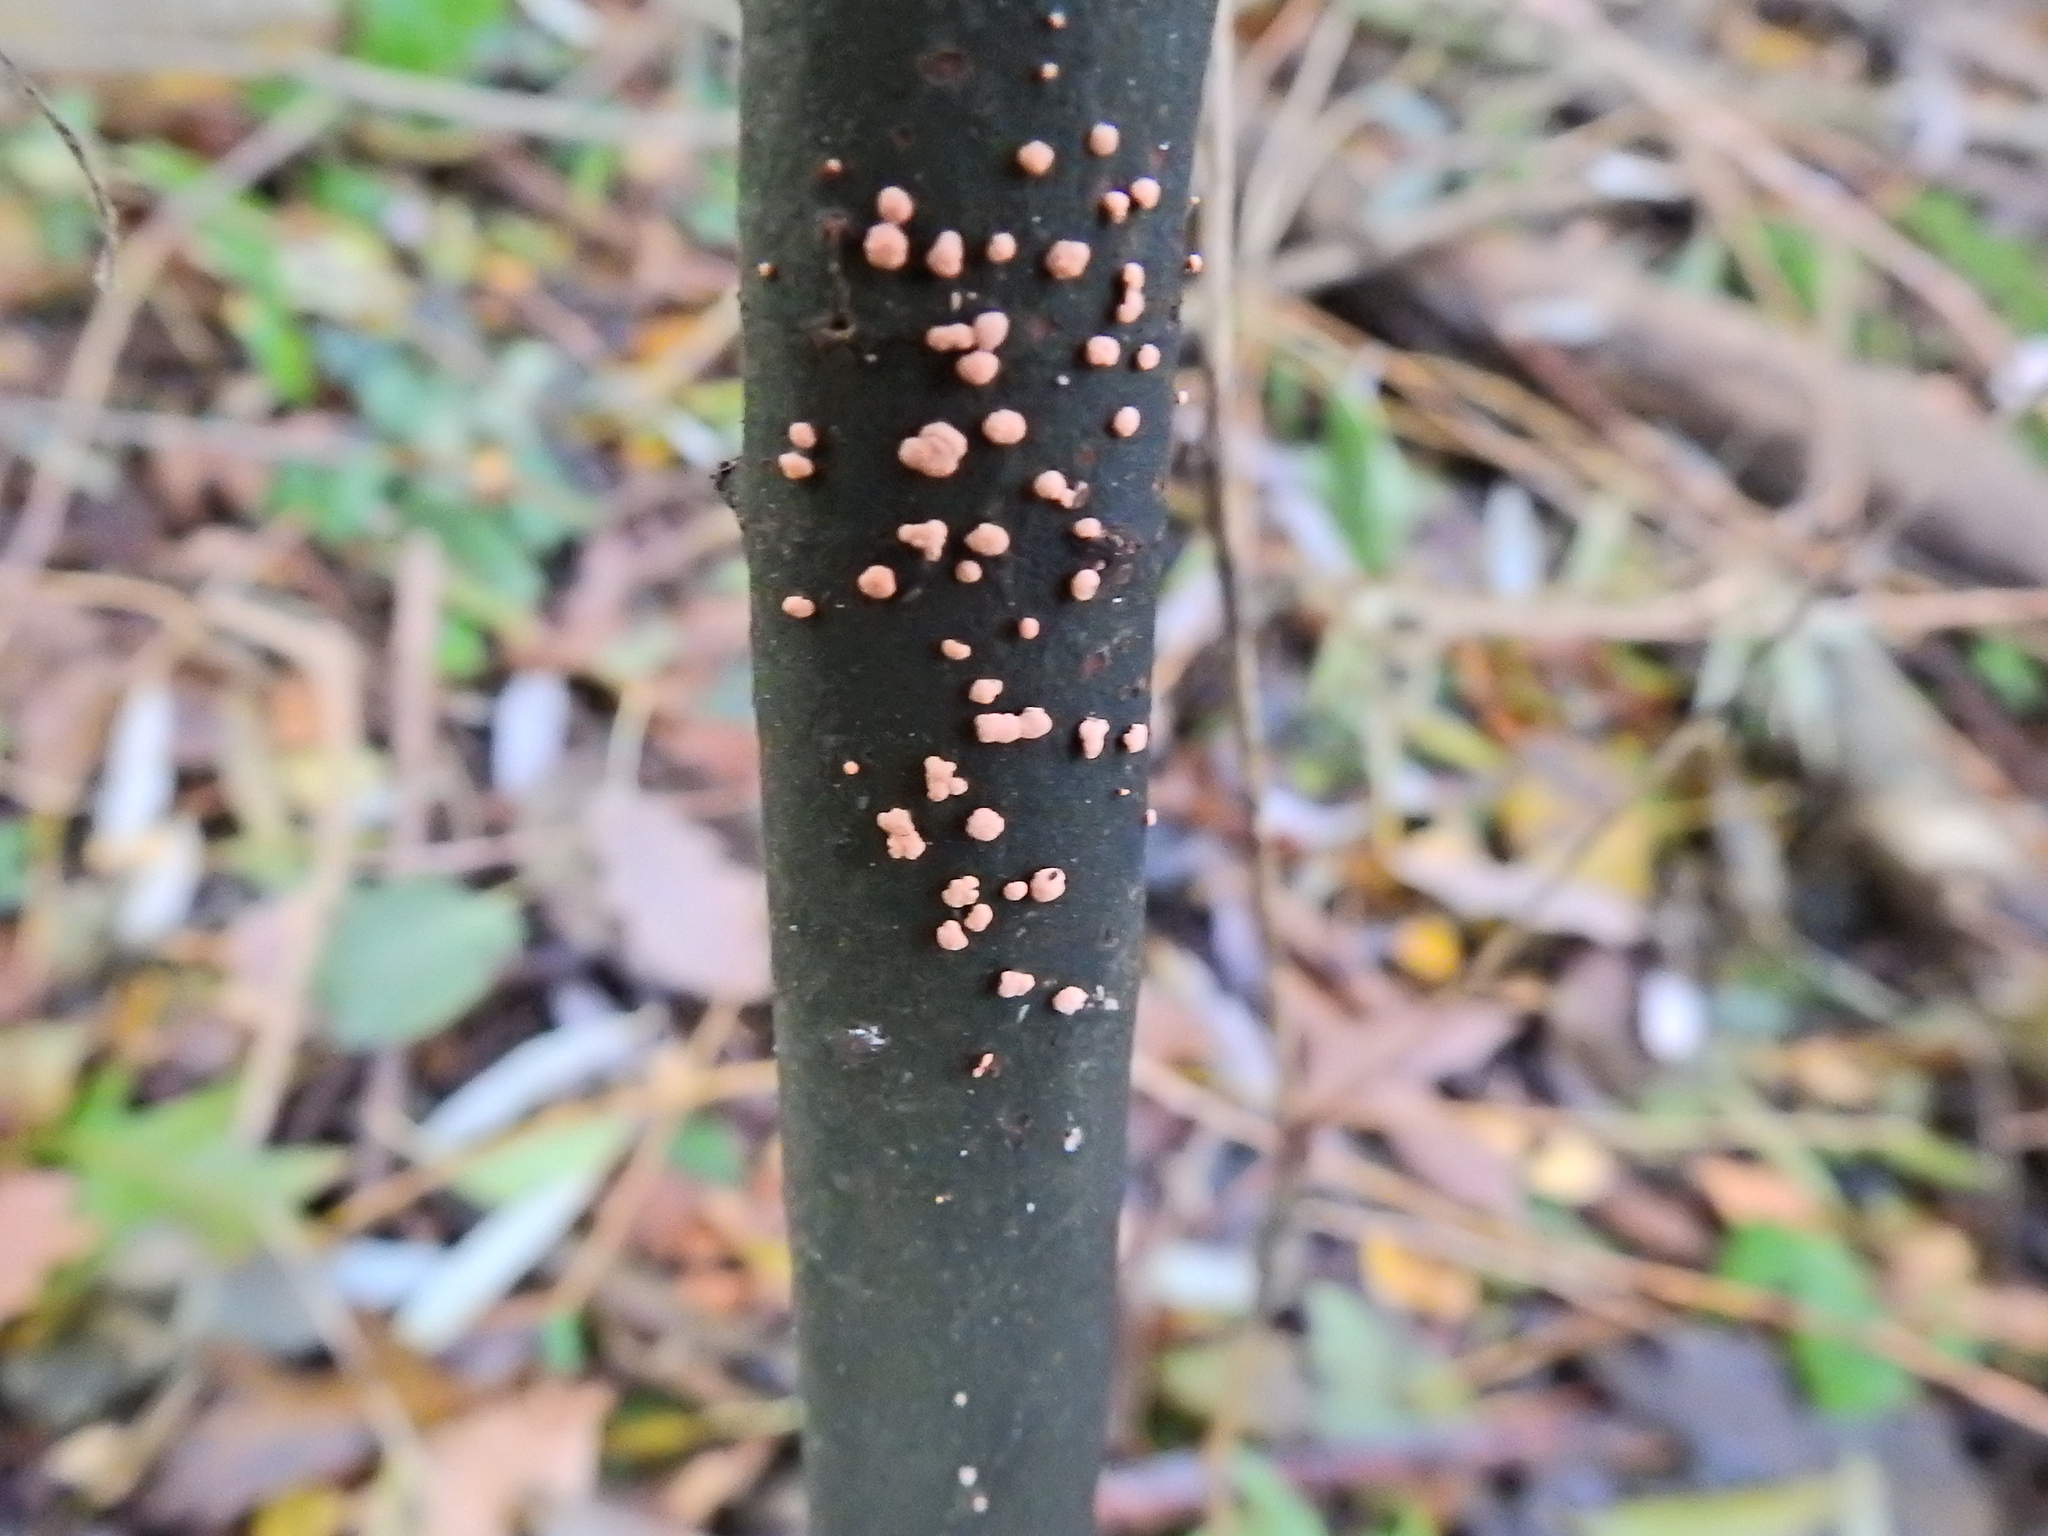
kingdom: Fungi
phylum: Ascomycota
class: Sordariomycetes
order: Hypocreales
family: Nectriaceae
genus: Nectria
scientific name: Nectria cinnabarina
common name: Coral spot
